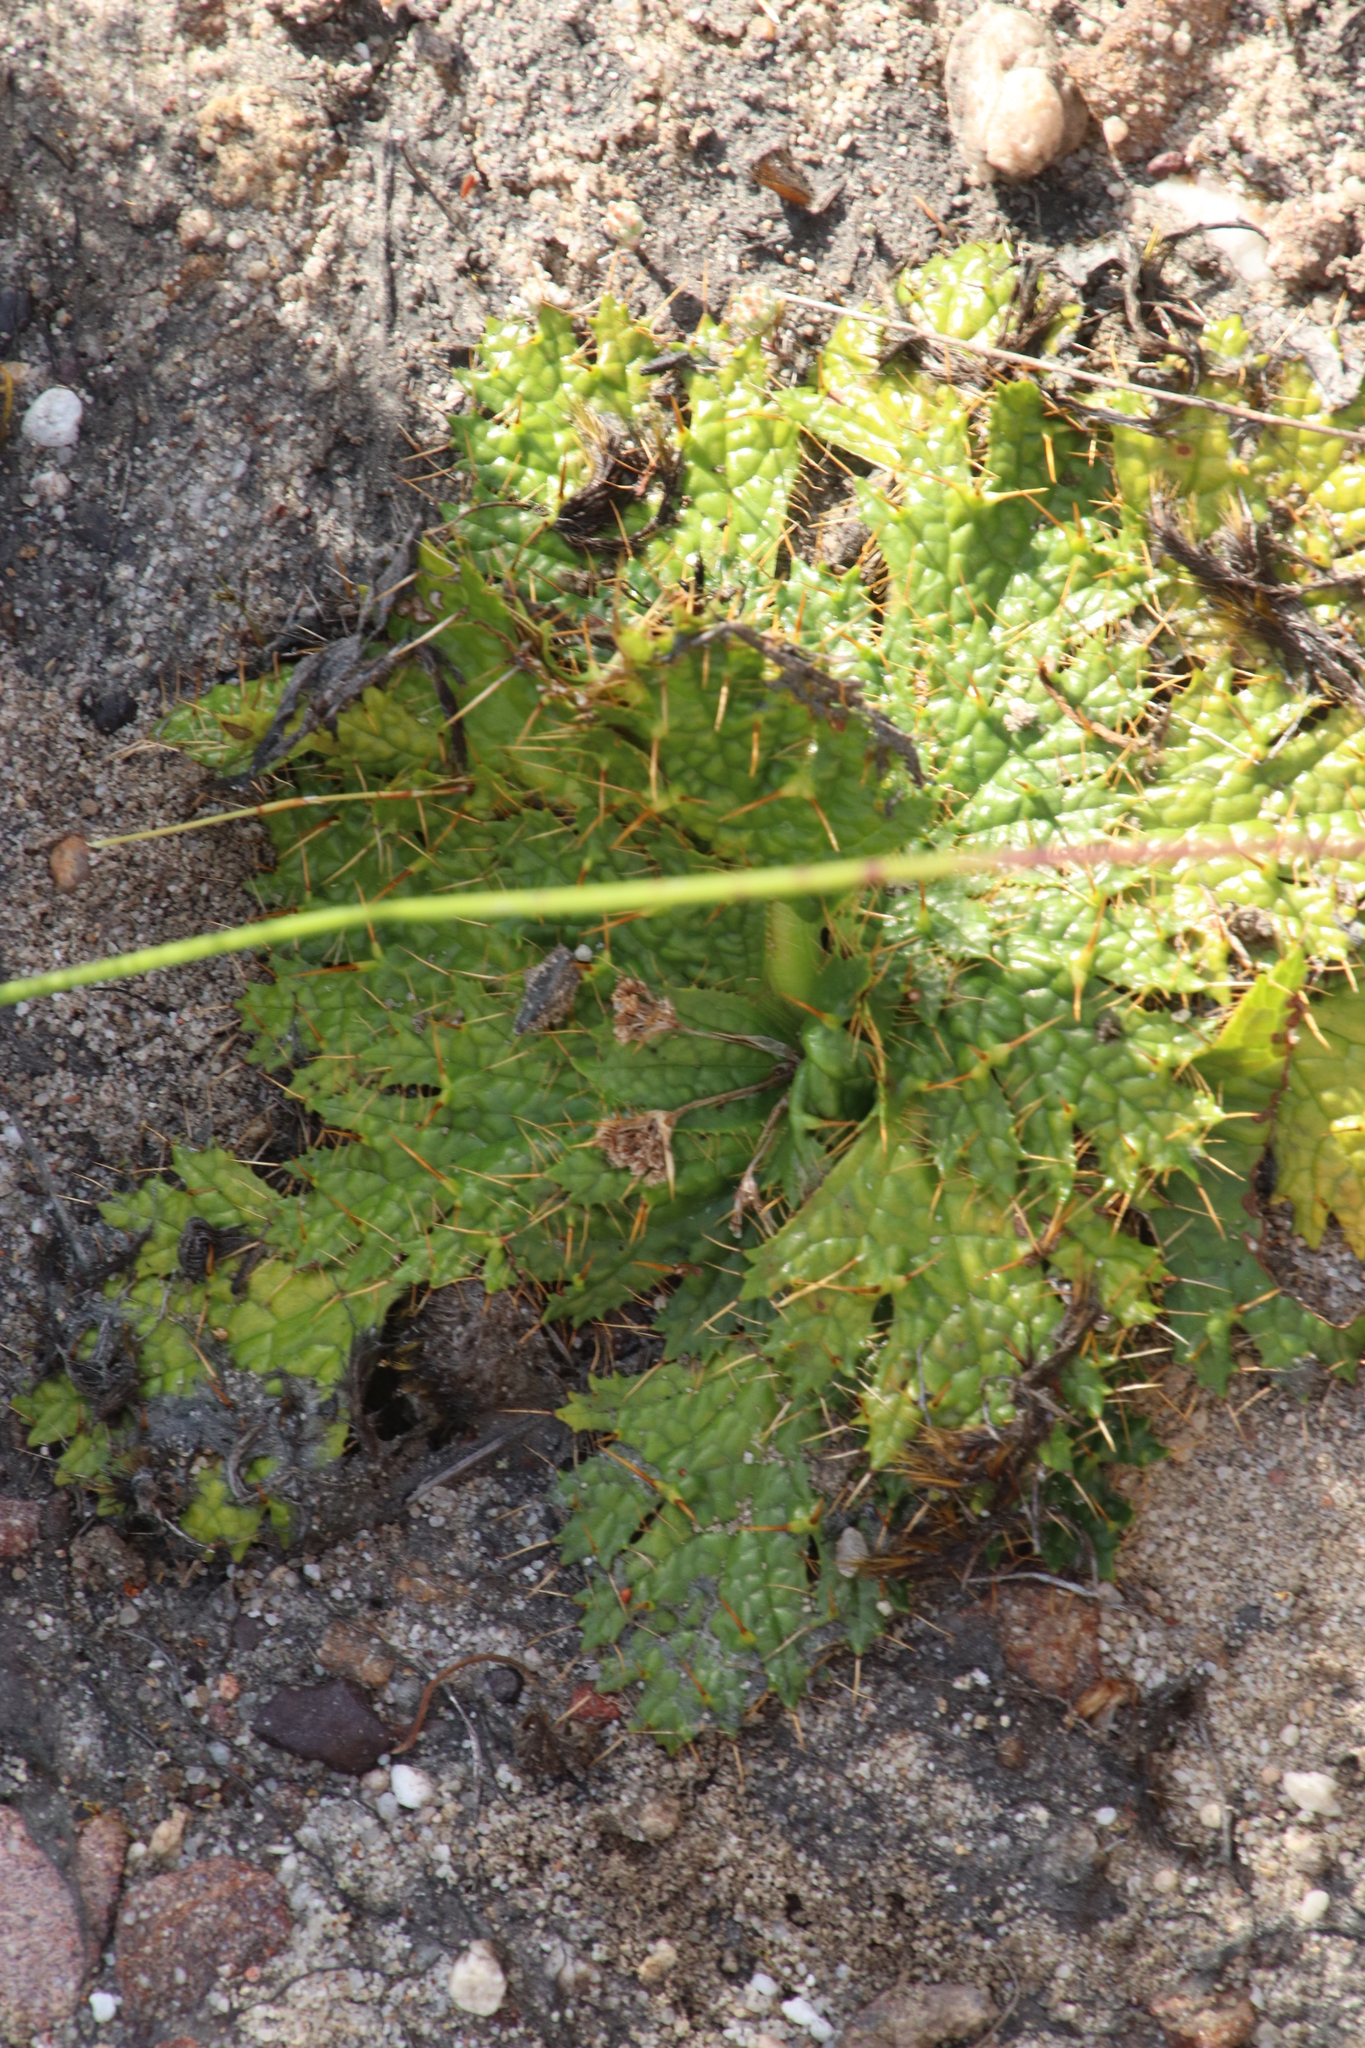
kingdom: Plantae
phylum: Tracheophyta
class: Magnoliopsida
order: Apiales
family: Apiaceae
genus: Arctopus
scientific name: Arctopus echinatus
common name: Platdoring
